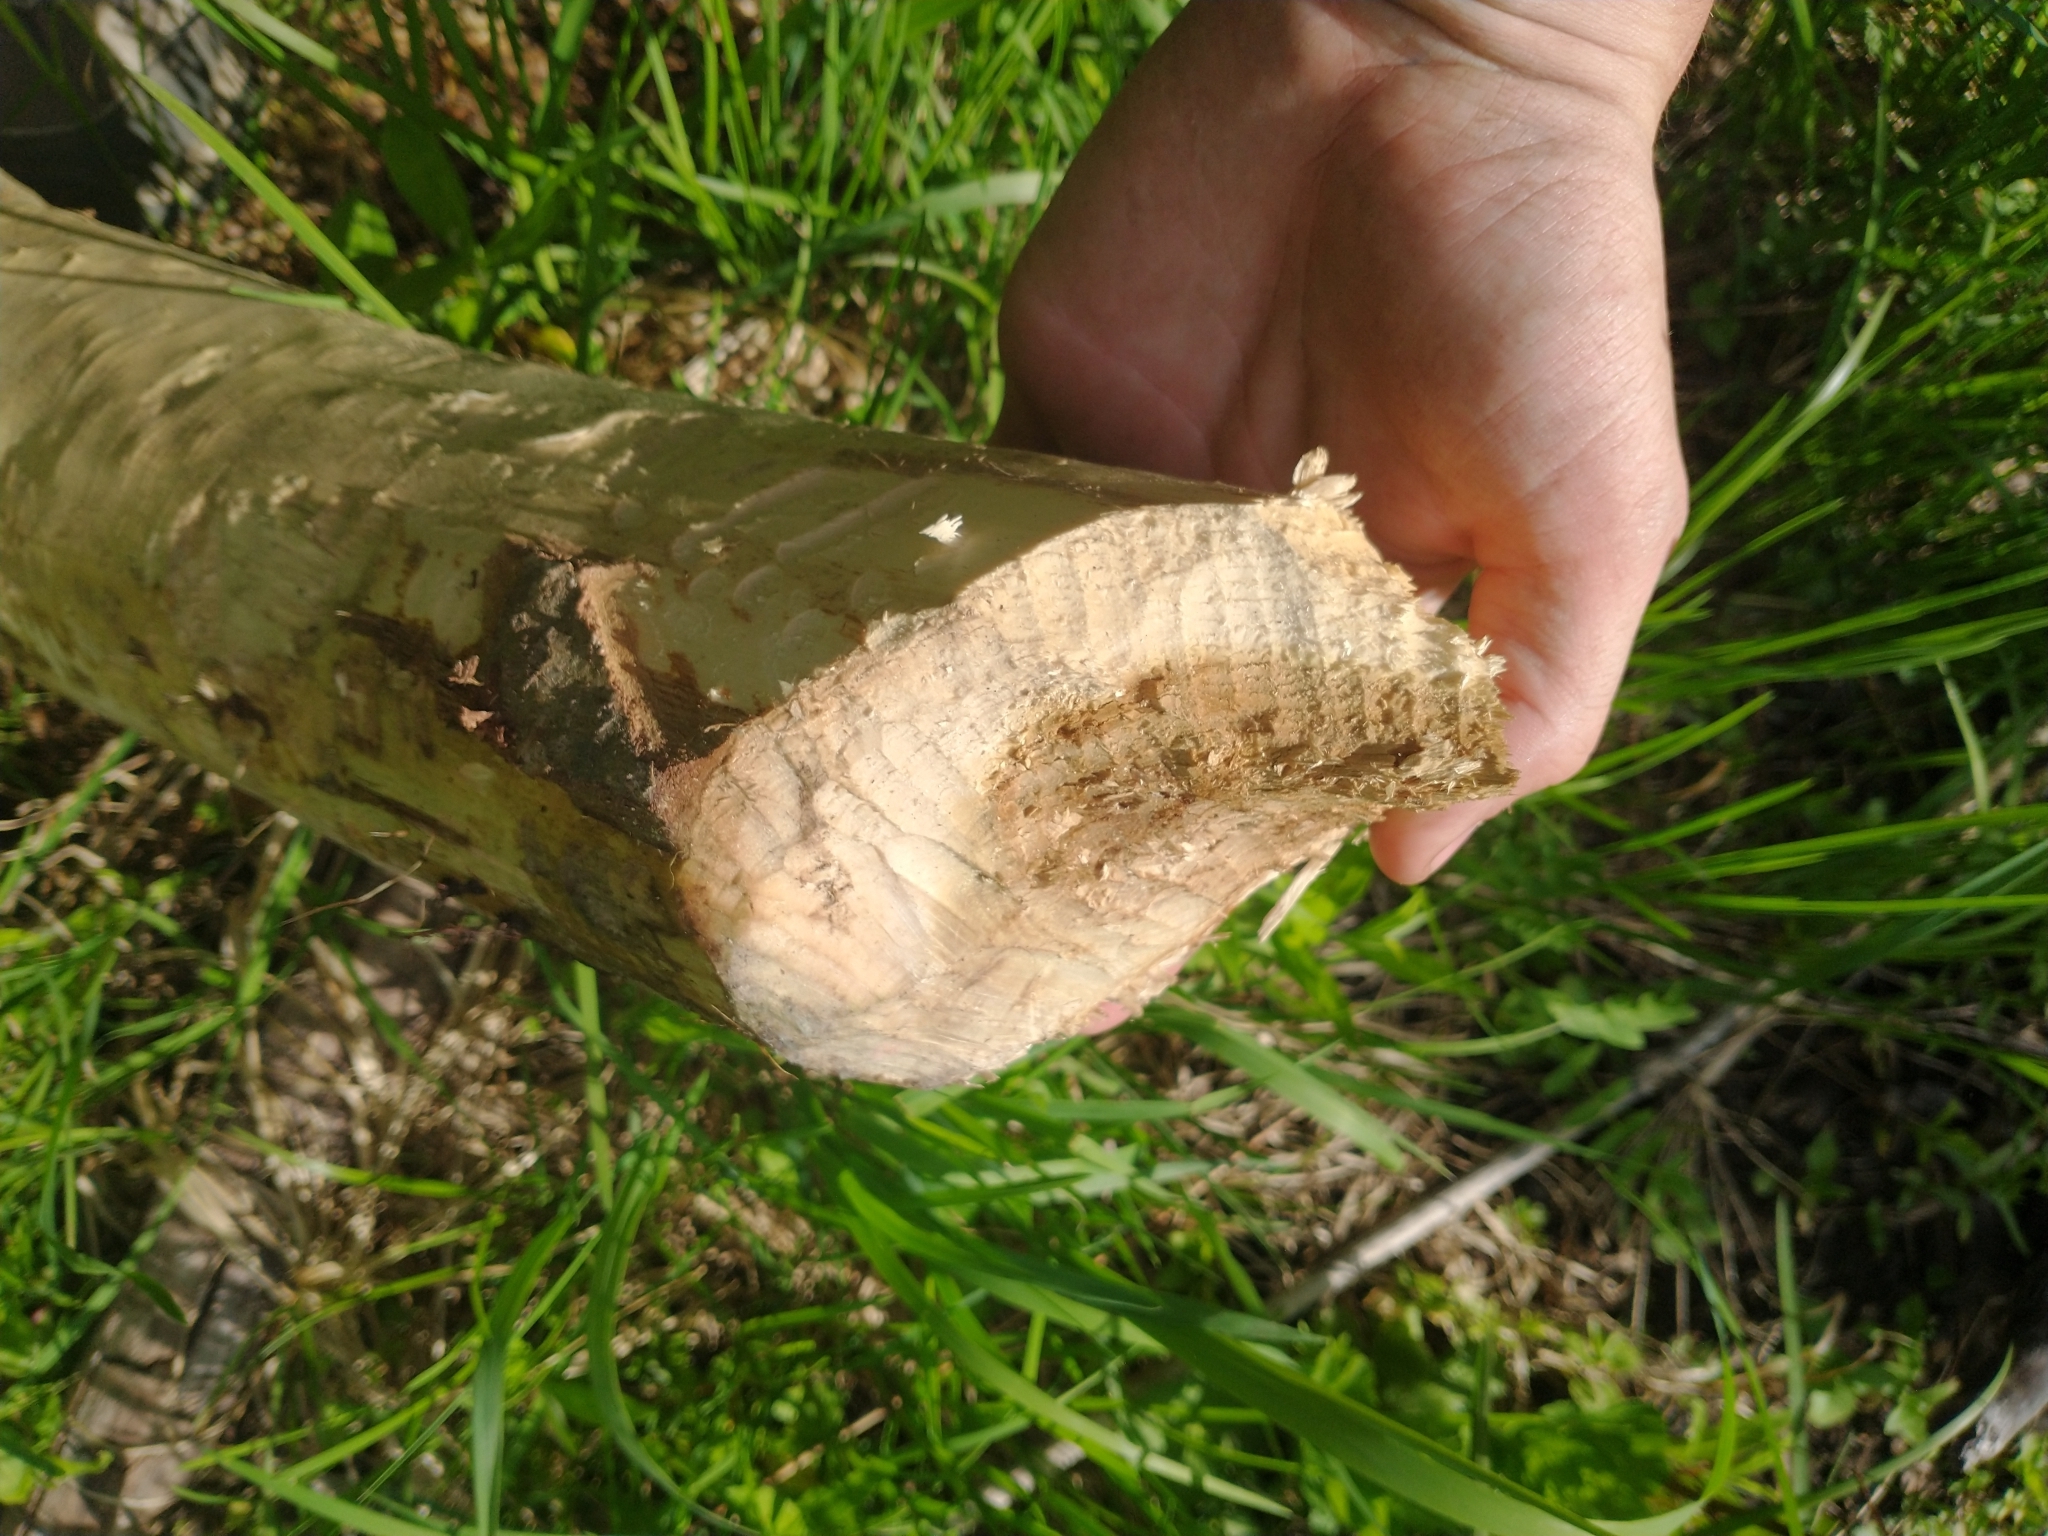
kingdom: Animalia
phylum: Chordata
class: Mammalia
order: Rodentia
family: Castoridae
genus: Castor
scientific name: Castor canadensis
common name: American beaver
